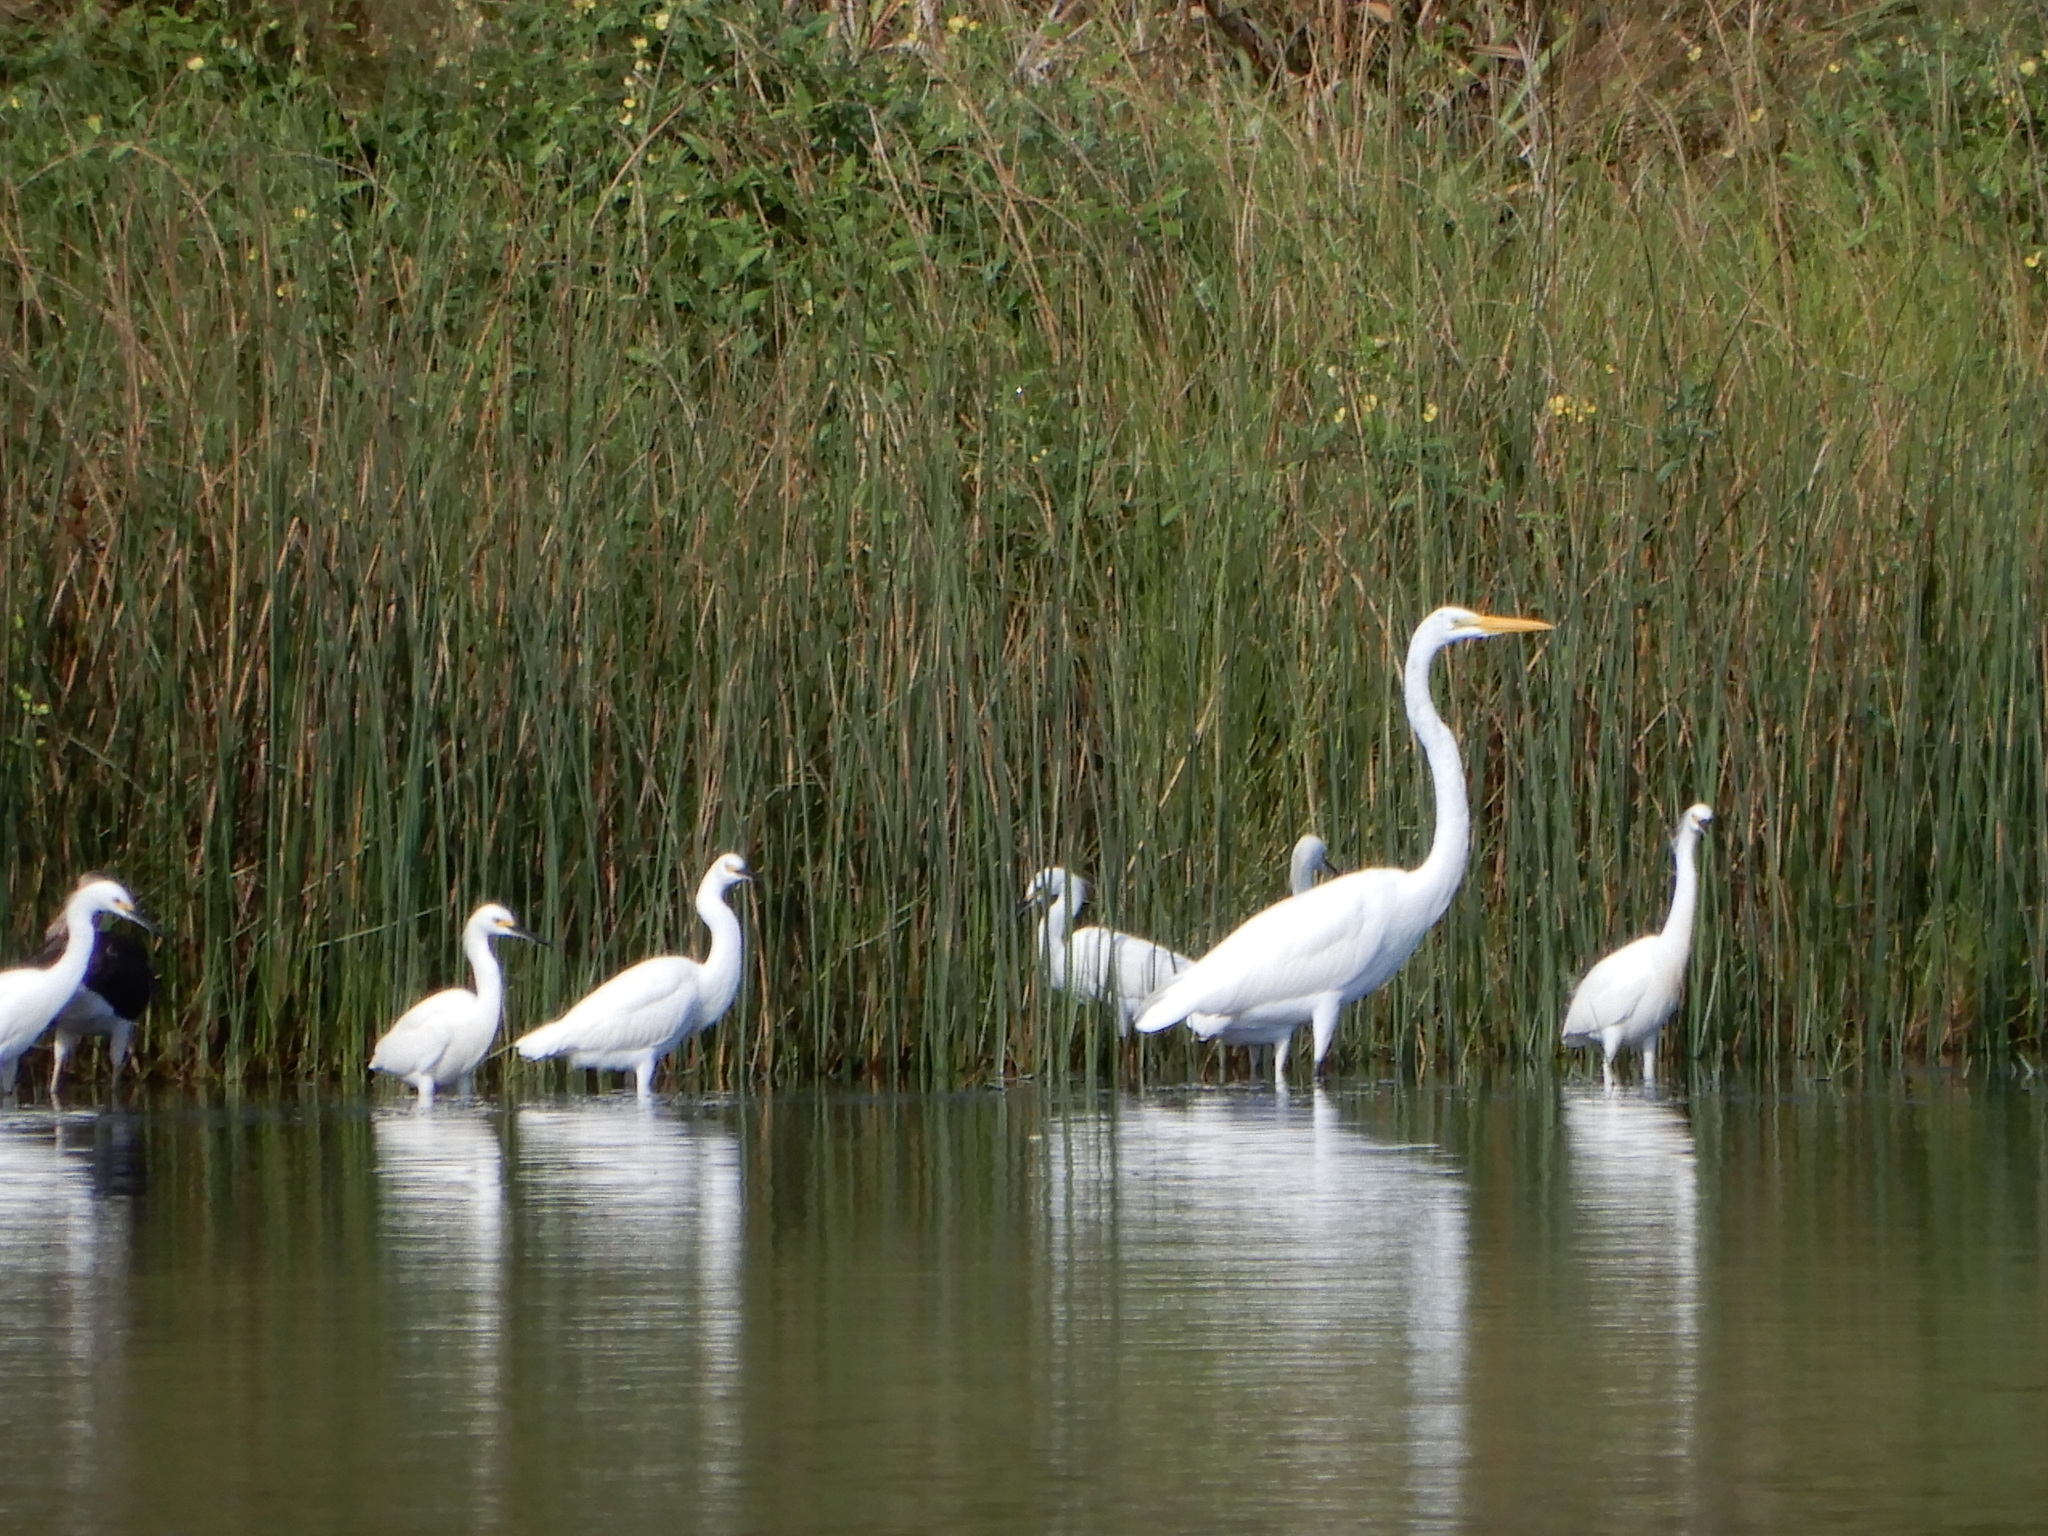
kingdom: Animalia
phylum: Chordata
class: Aves
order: Pelecaniformes
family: Ardeidae
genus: Ardea
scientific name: Ardea alba
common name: Great egret
